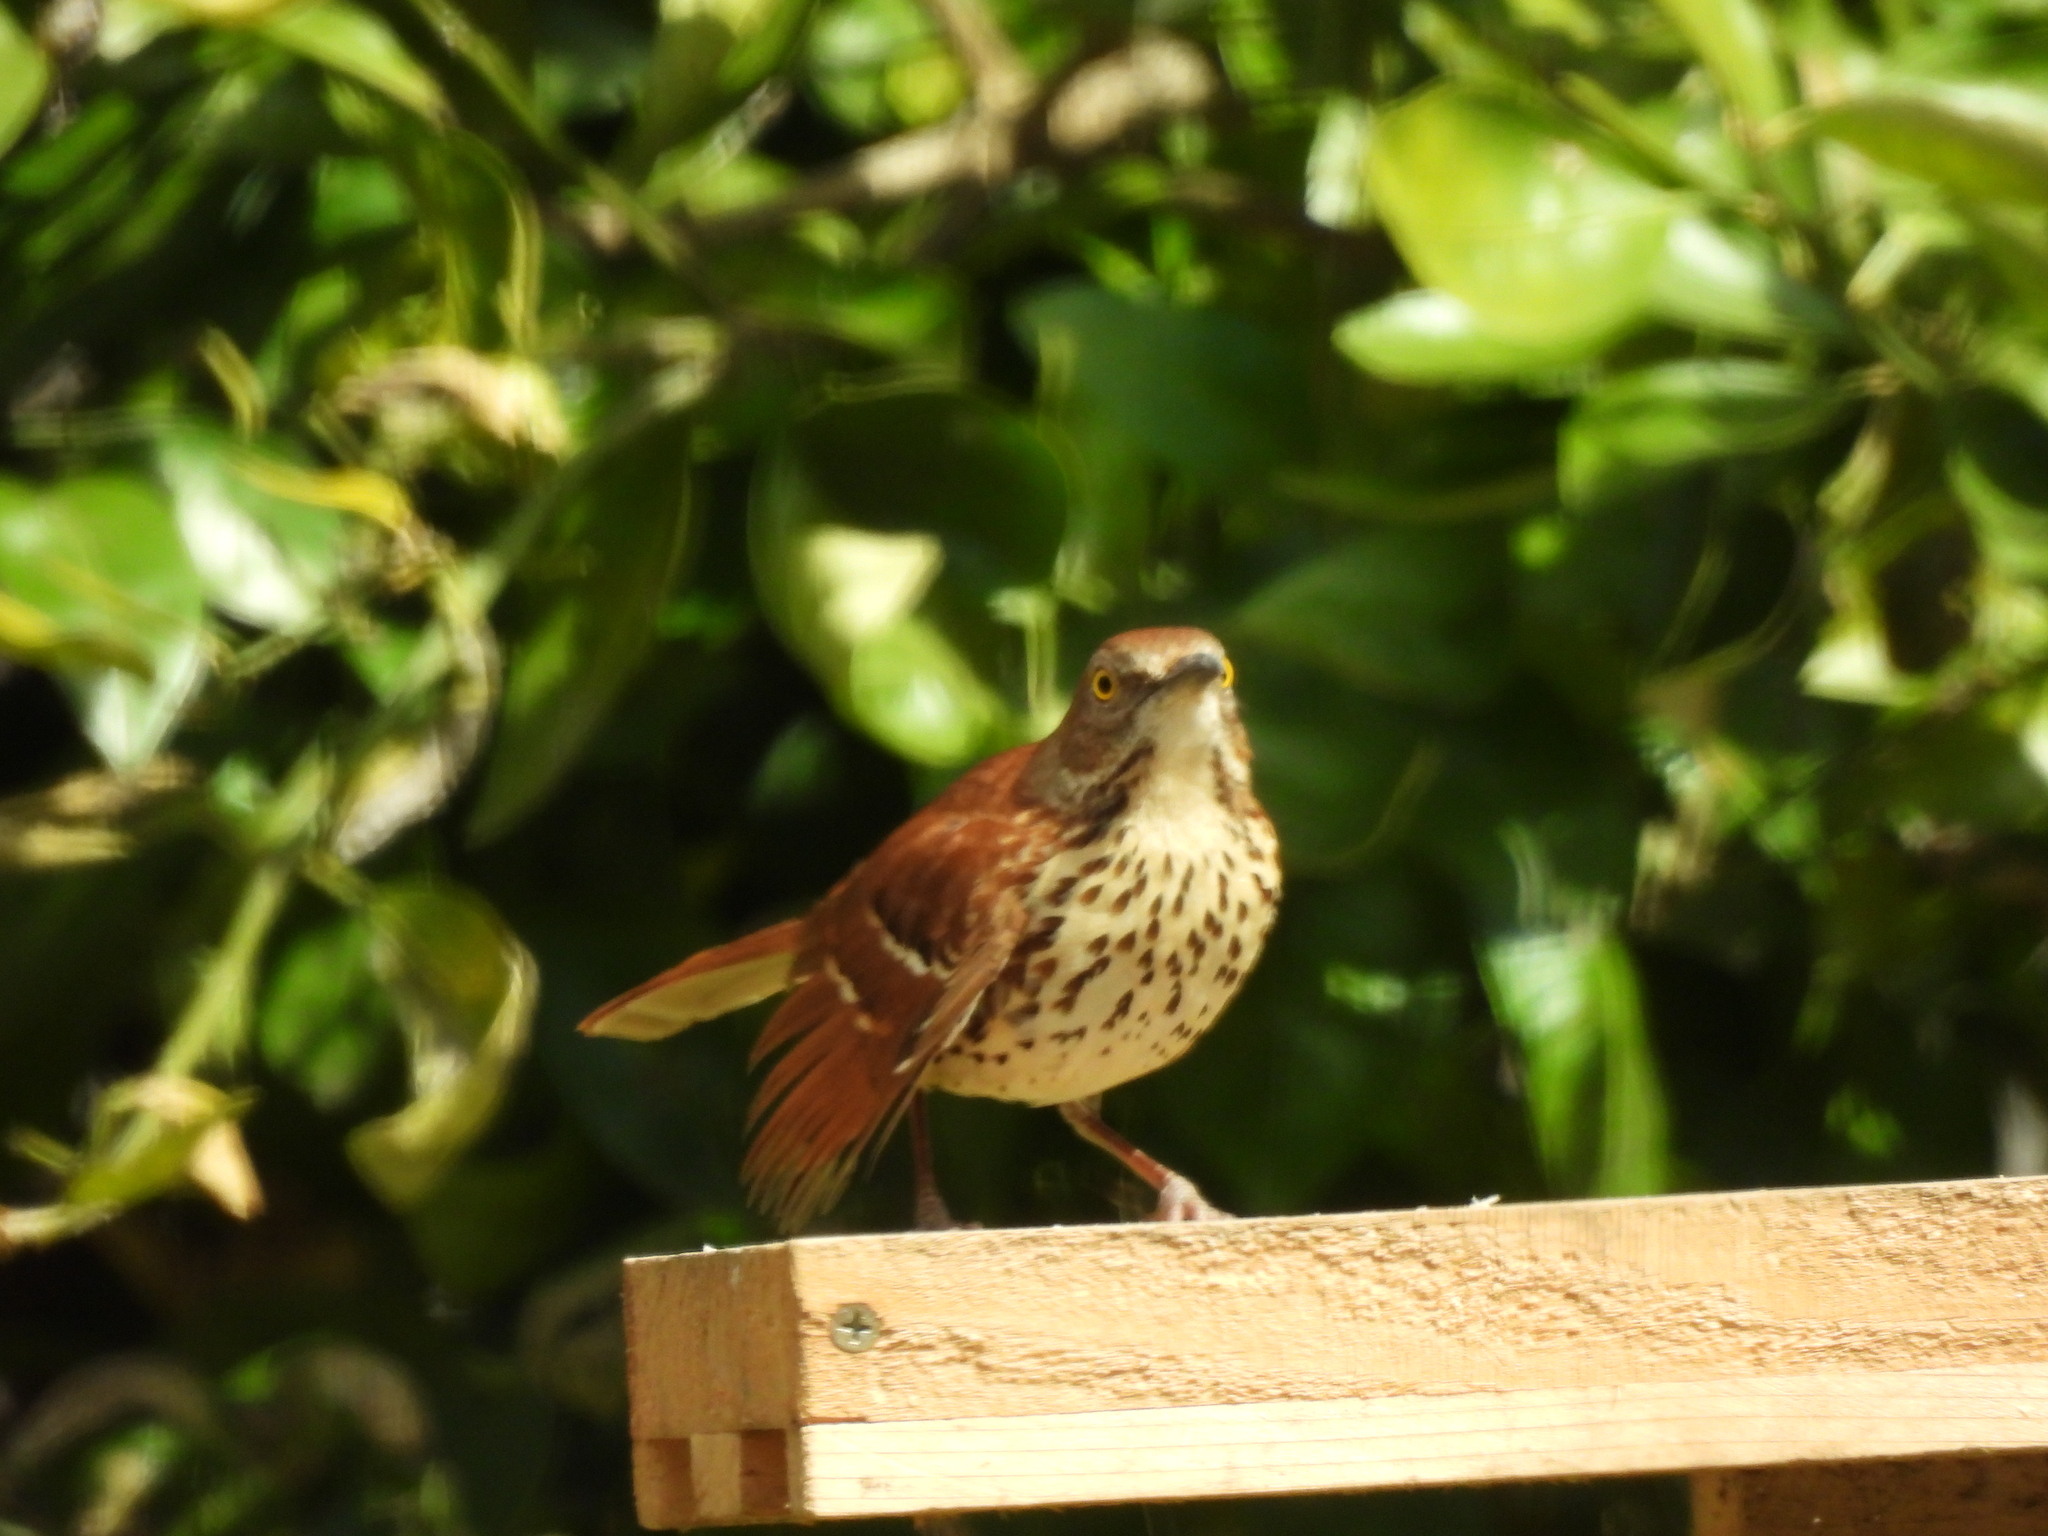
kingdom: Animalia
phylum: Chordata
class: Aves
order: Passeriformes
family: Mimidae
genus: Toxostoma
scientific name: Toxostoma rufum
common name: Brown thrasher
